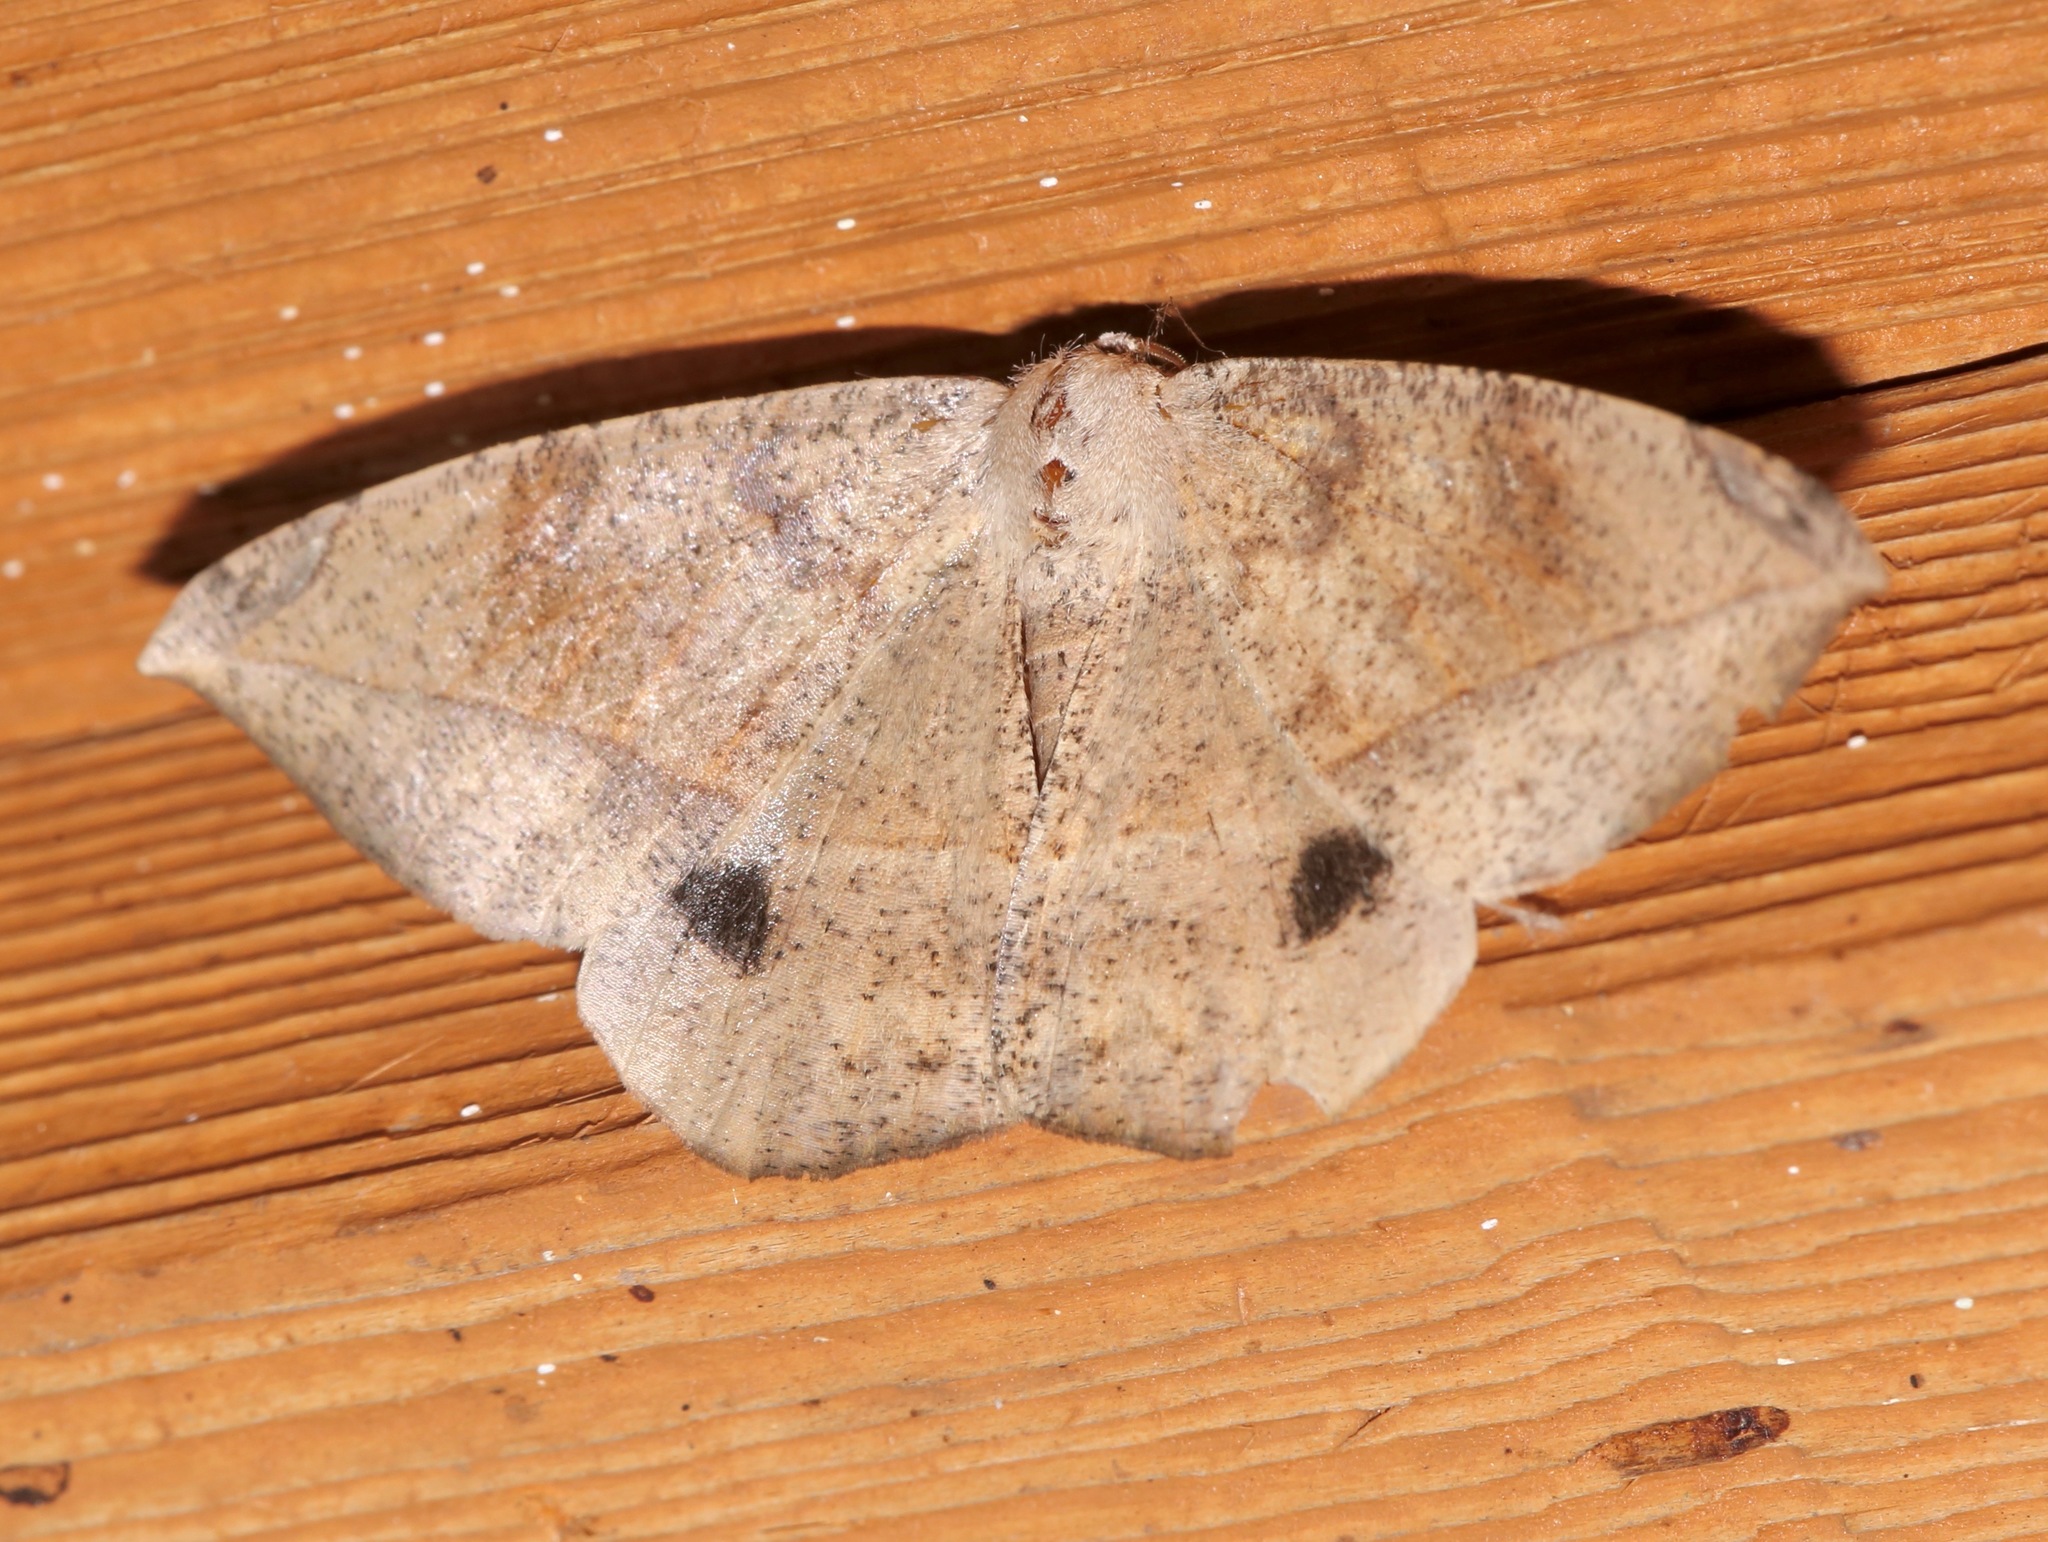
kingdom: Animalia
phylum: Arthropoda
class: Insecta
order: Lepidoptera
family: Geometridae
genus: Oxydia
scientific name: Oxydia vesulia
